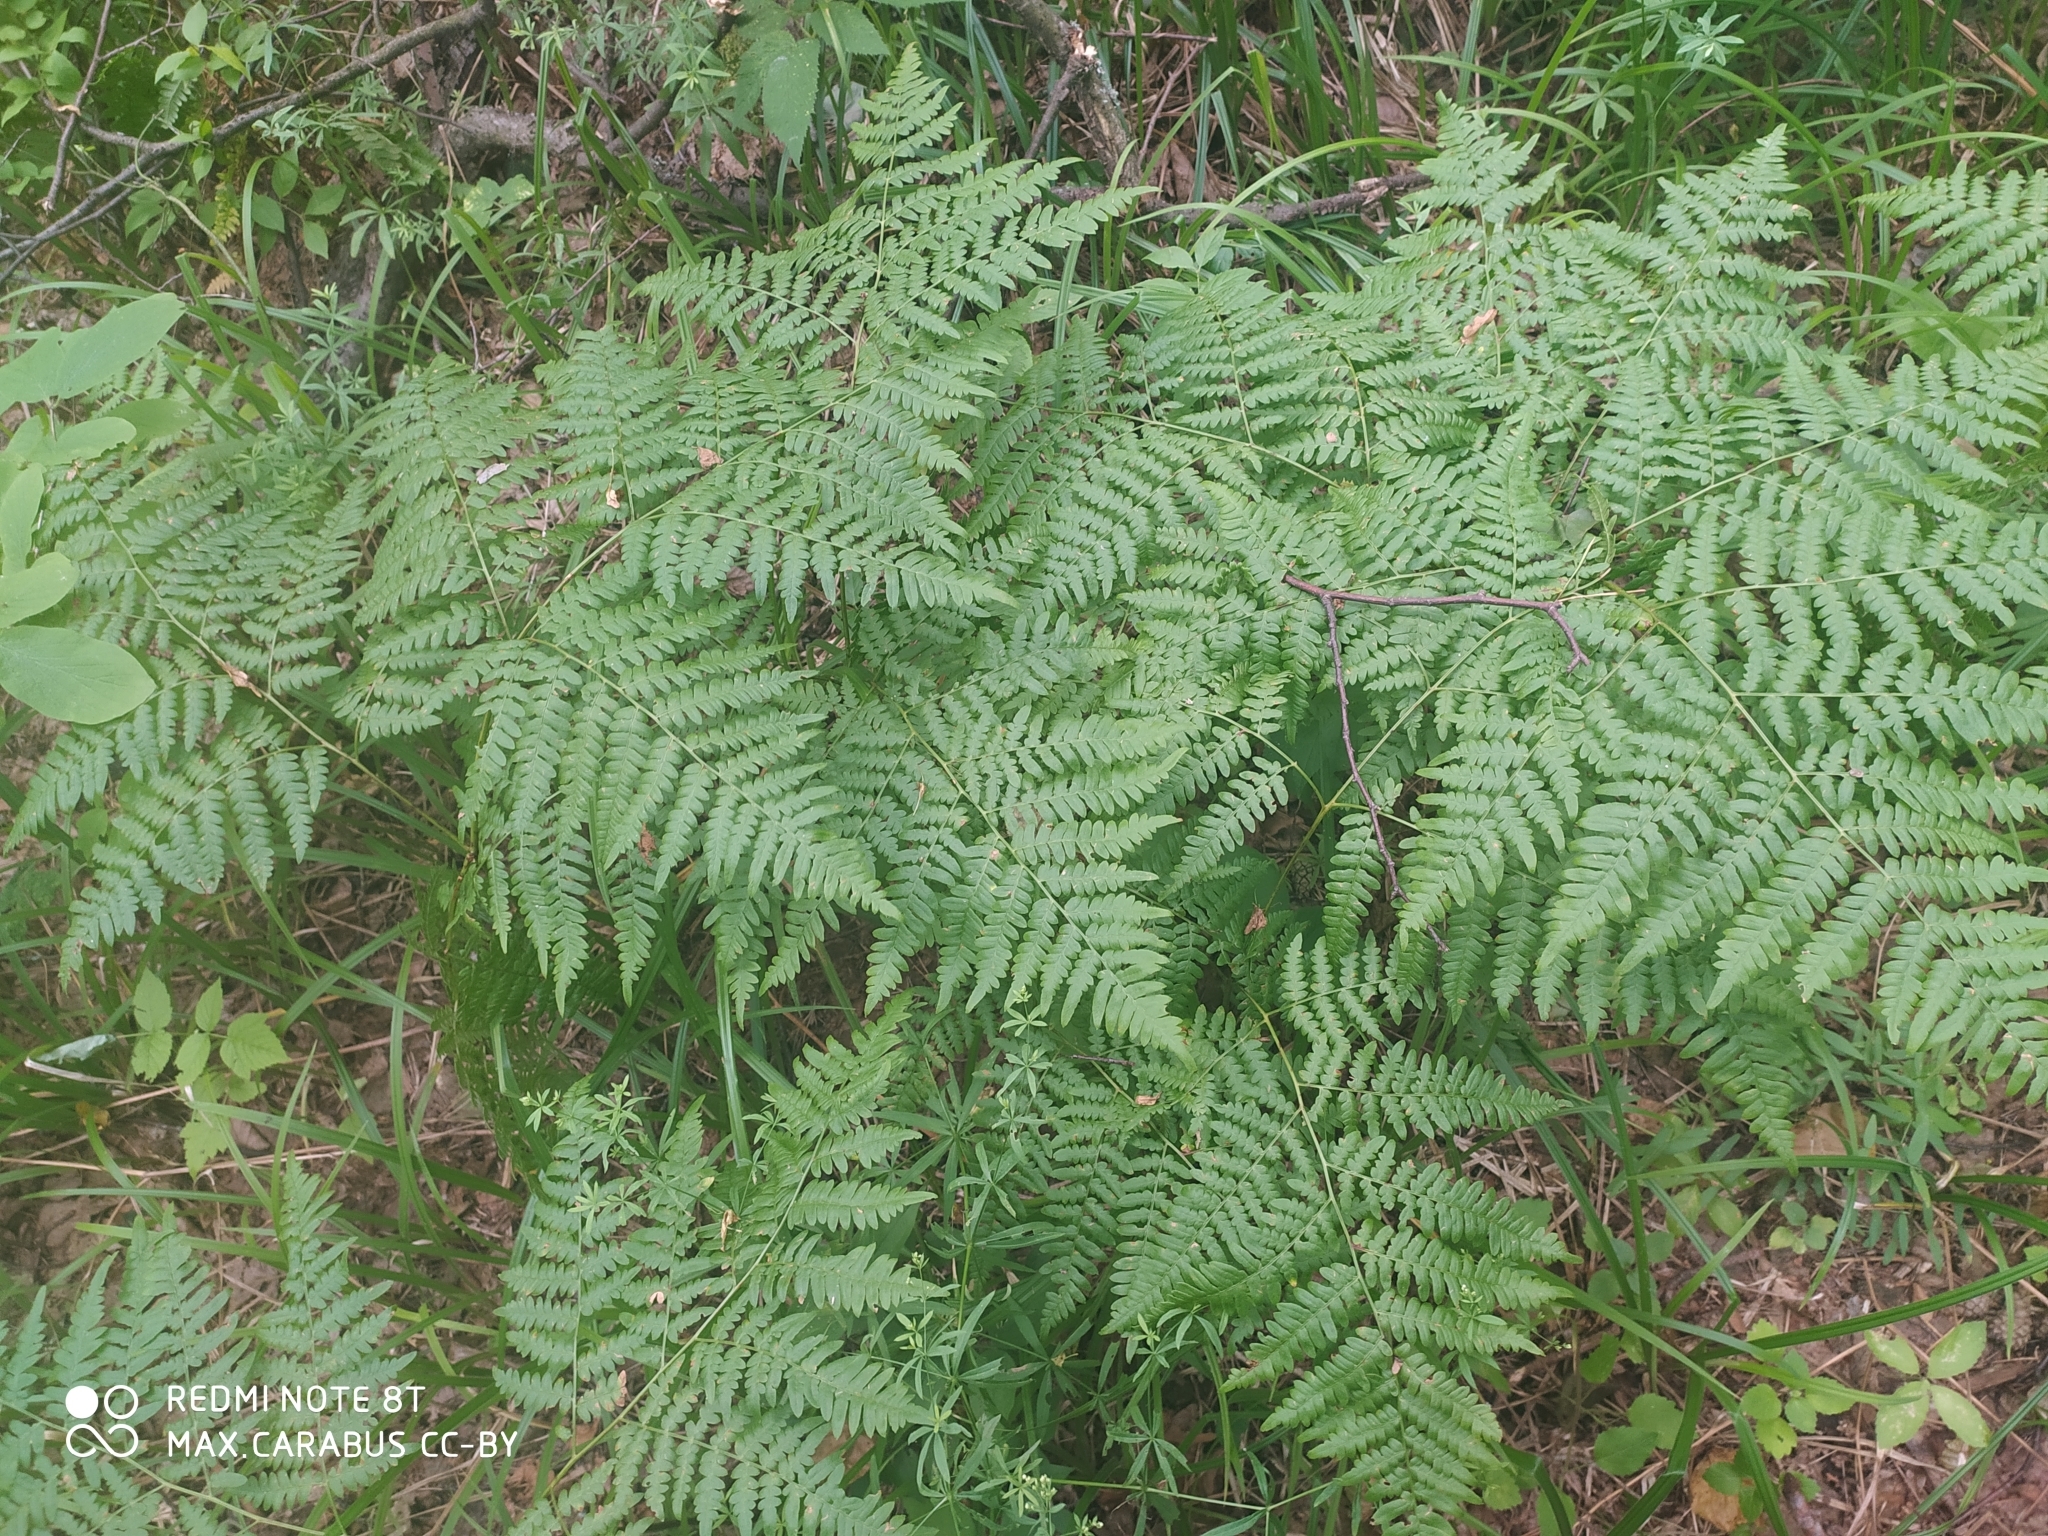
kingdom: Plantae
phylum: Tracheophyta
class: Polypodiopsida
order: Polypodiales
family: Dennstaedtiaceae
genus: Pteridium
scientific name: Pteridium aquilinum
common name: Bracken
